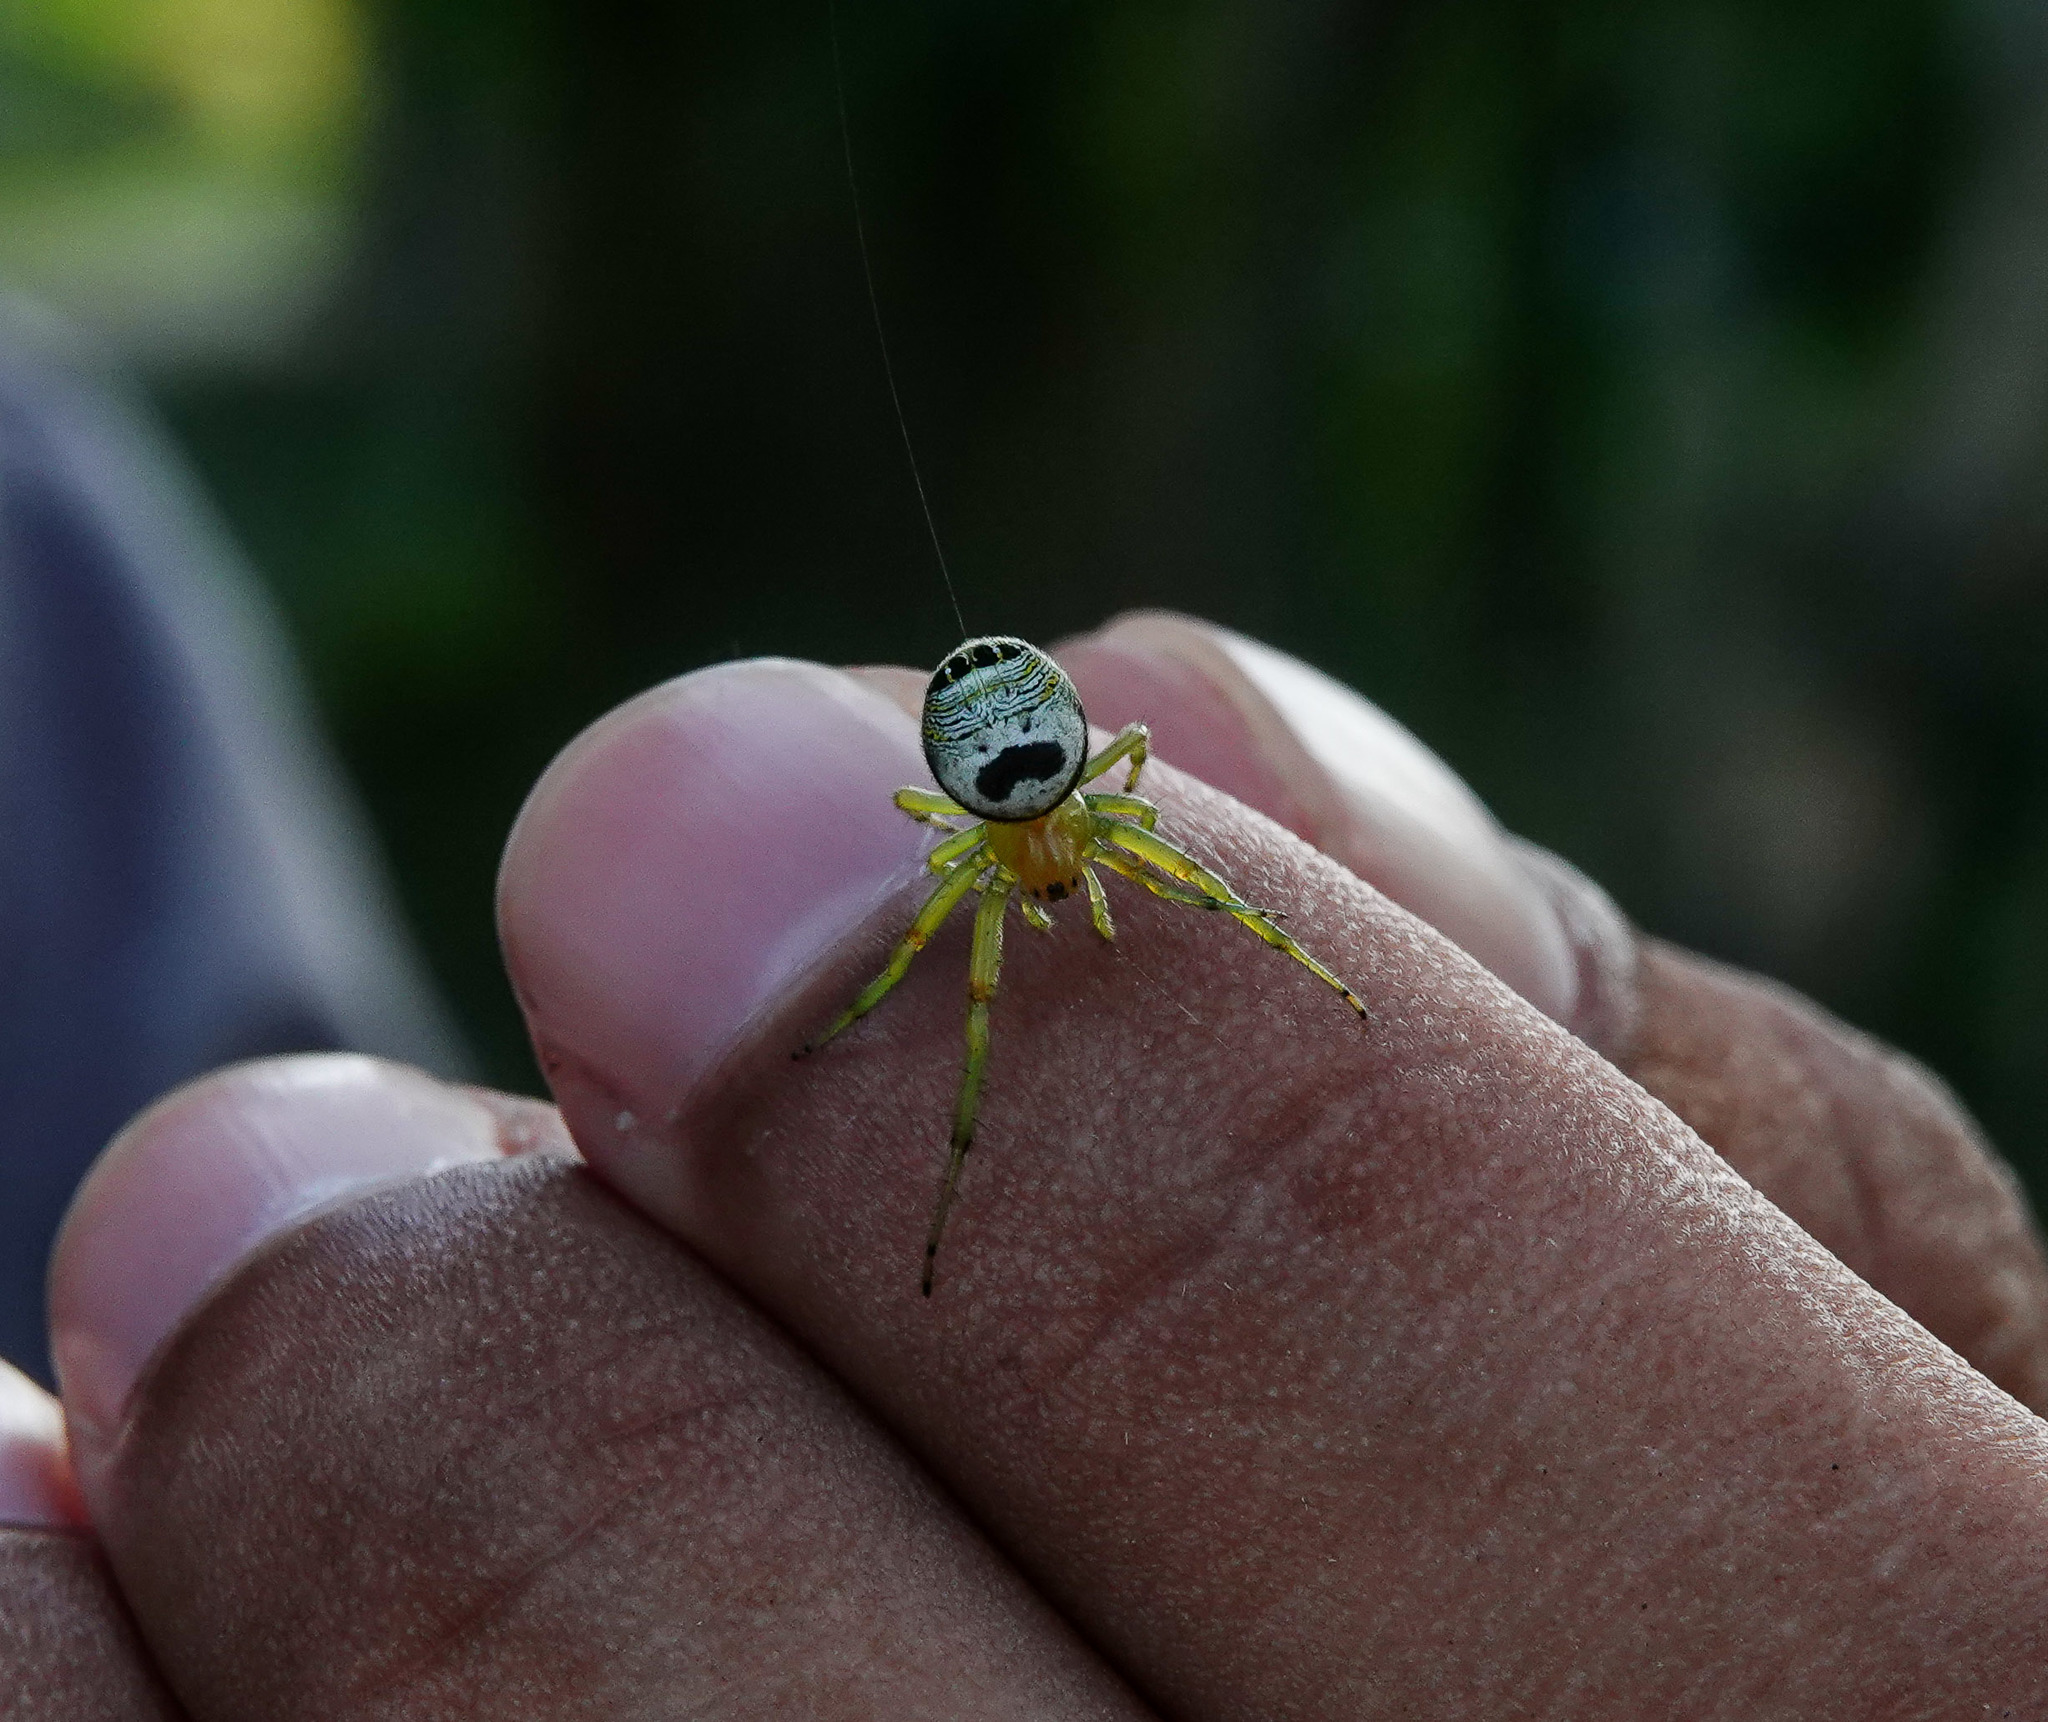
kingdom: Animalia
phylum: Arthropoda
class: Arachnida
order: Araneae
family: Araneidae
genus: Bijoaraneus
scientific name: Bijoaraneus mitificus
